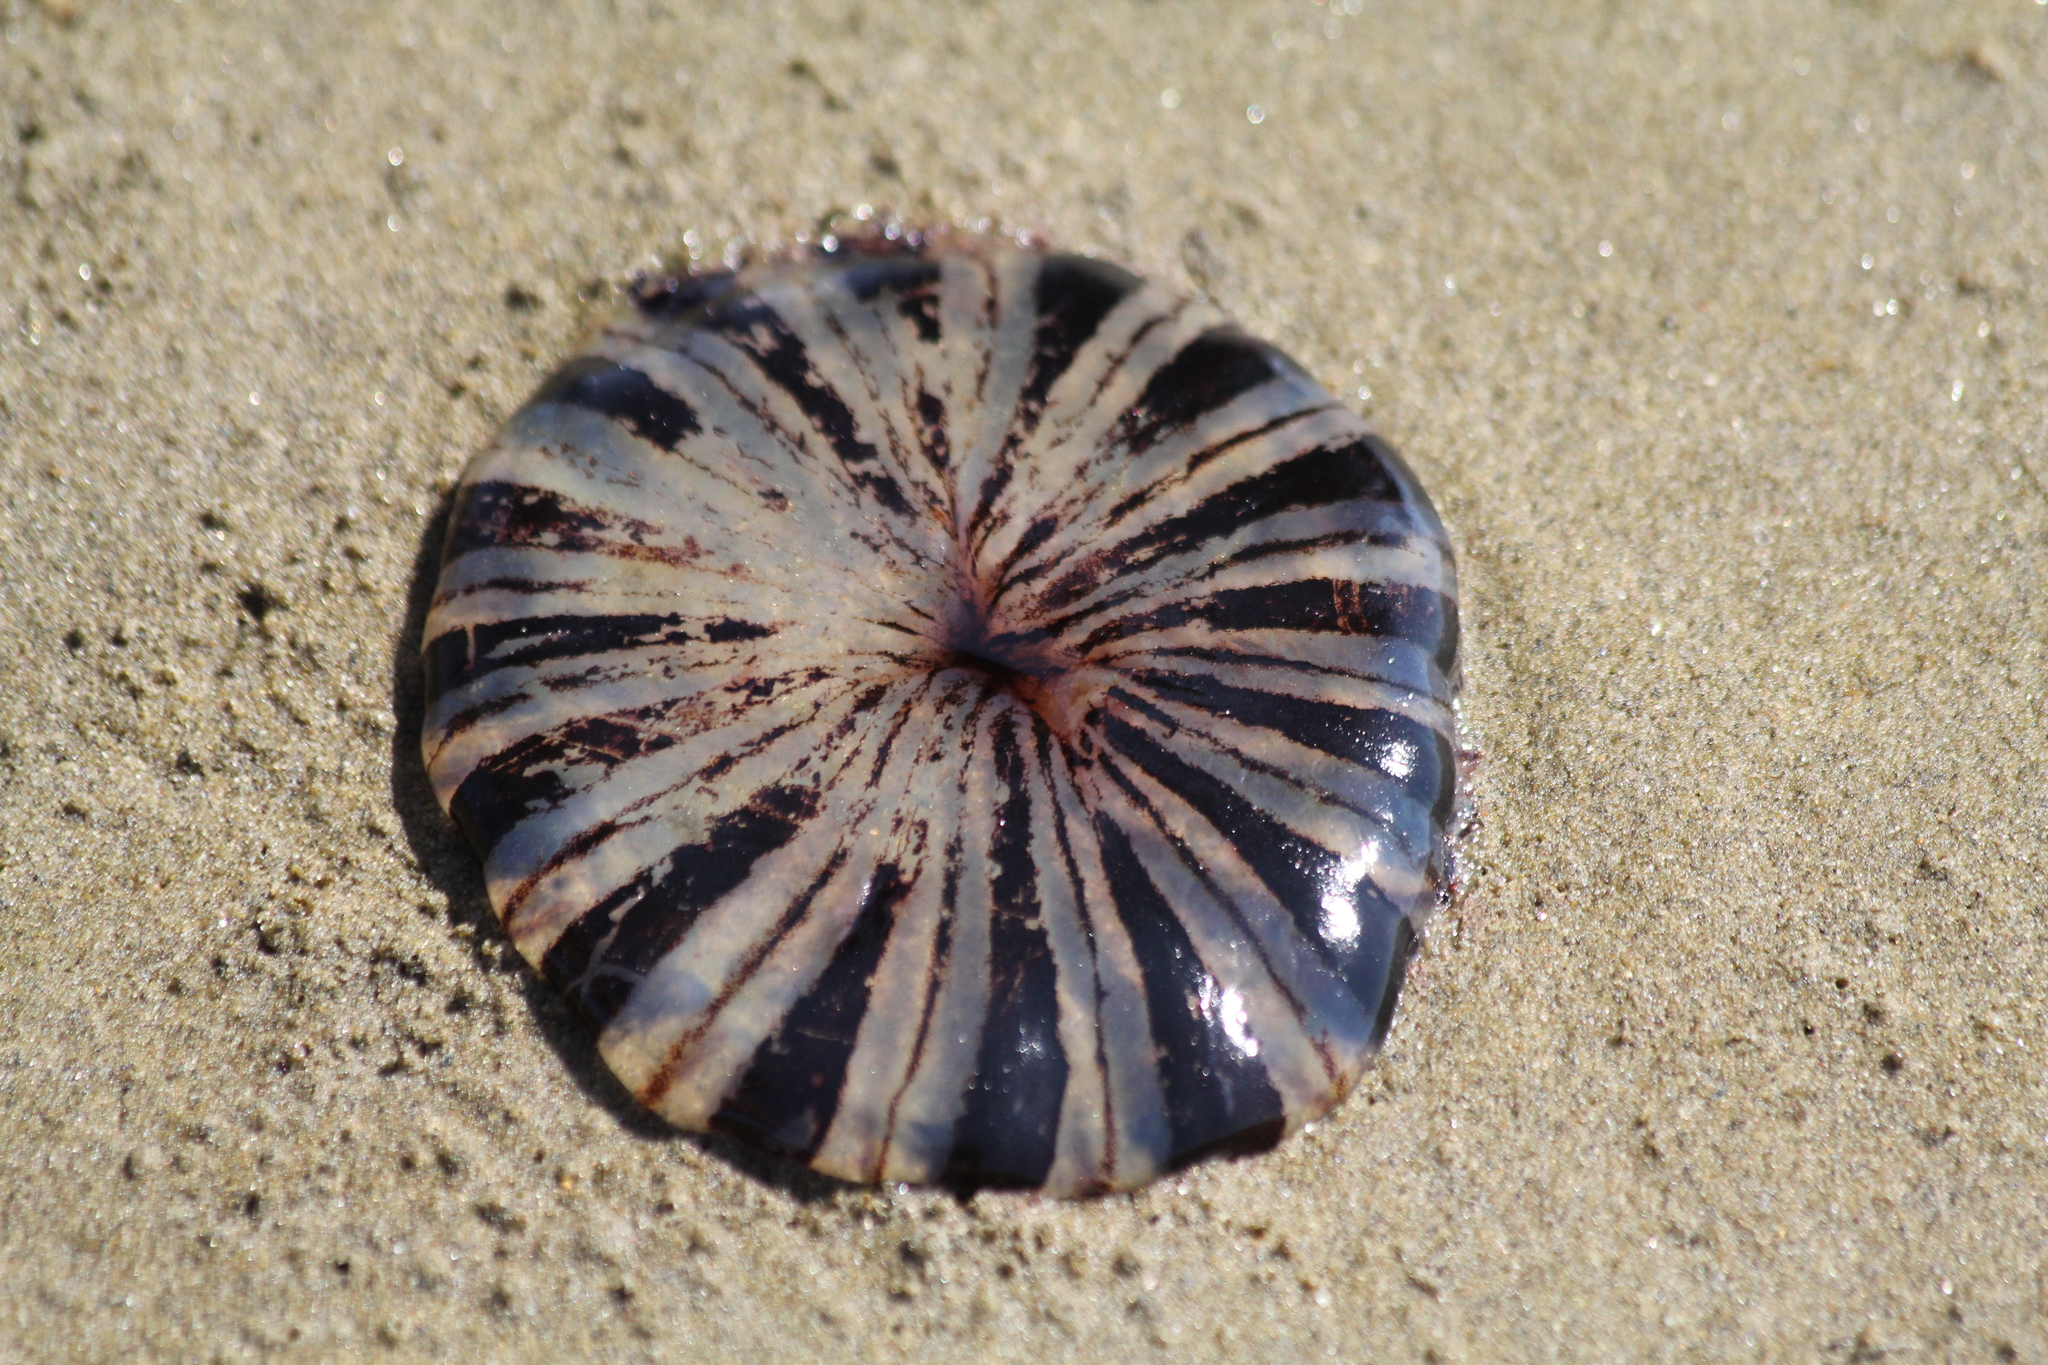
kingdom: Animalia
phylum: Cnidaria
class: Scyphozoa
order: Semaeostomeae
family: Pelagiidae
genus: Chrysaora
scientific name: Chrysaora africana
